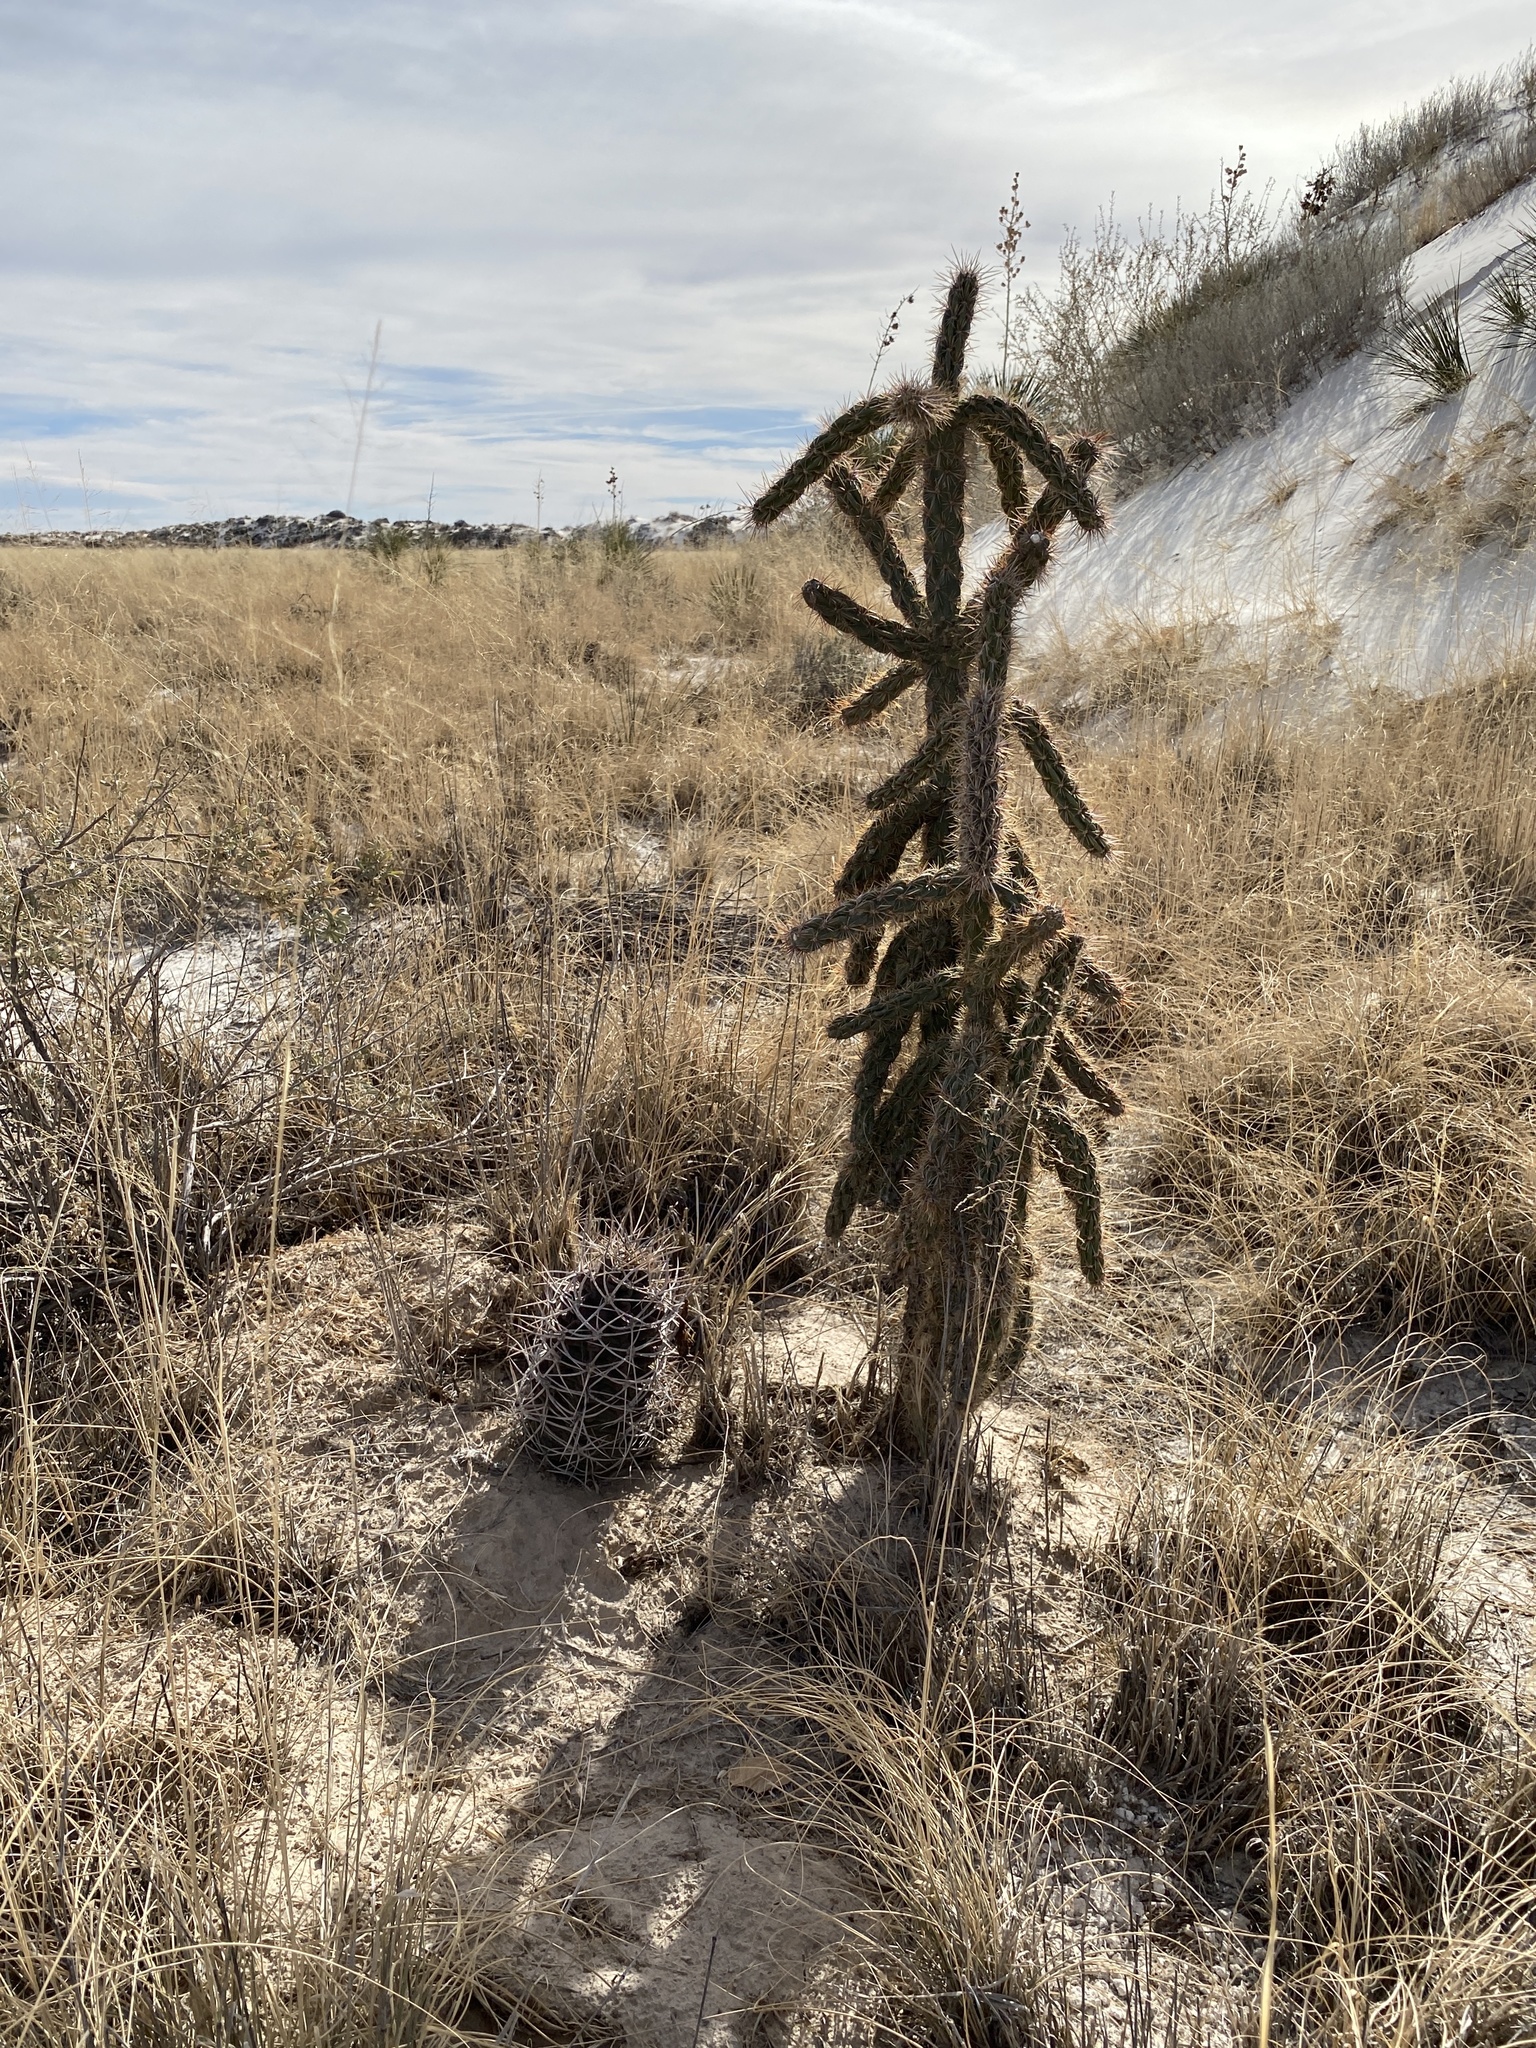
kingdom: Plantae
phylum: Tracheophyta
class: Magnoliopsida
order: Caryophyllales
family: Cactaceae
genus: Cylindropuntia
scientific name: Cylindropuntia imbricata
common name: Candelabrum cactus
